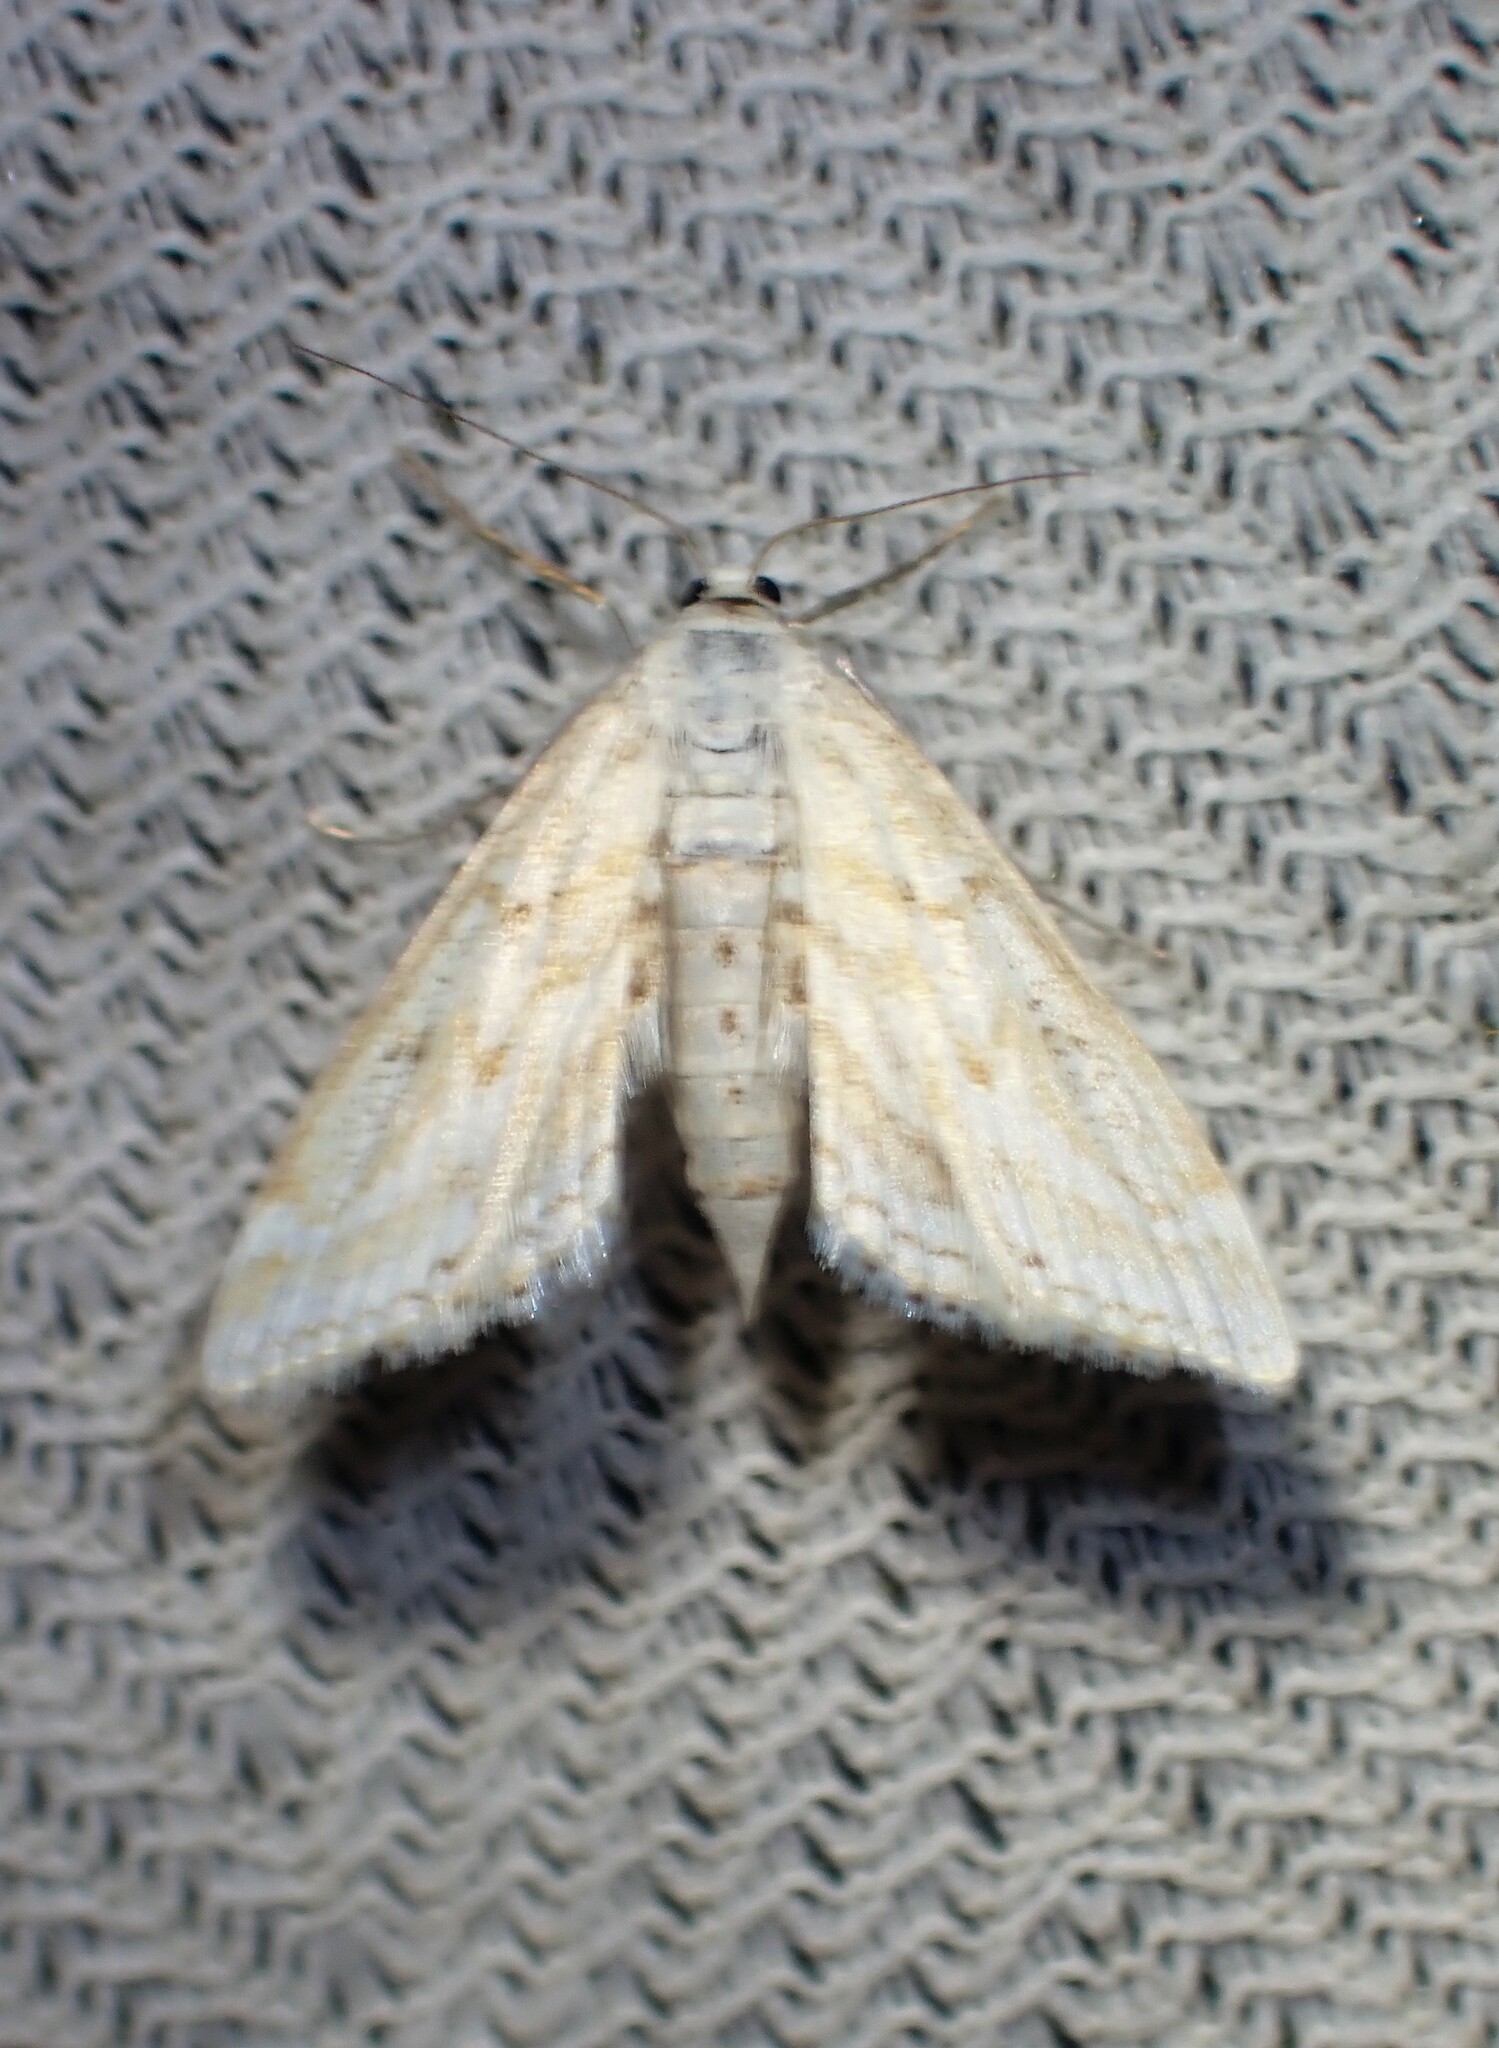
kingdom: Animalia
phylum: Arthropoda
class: Insecta
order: Lepidoptera
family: Crambidae
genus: Parapoynx
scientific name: Parapoynx allionealis
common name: Bladderwort casemaker
